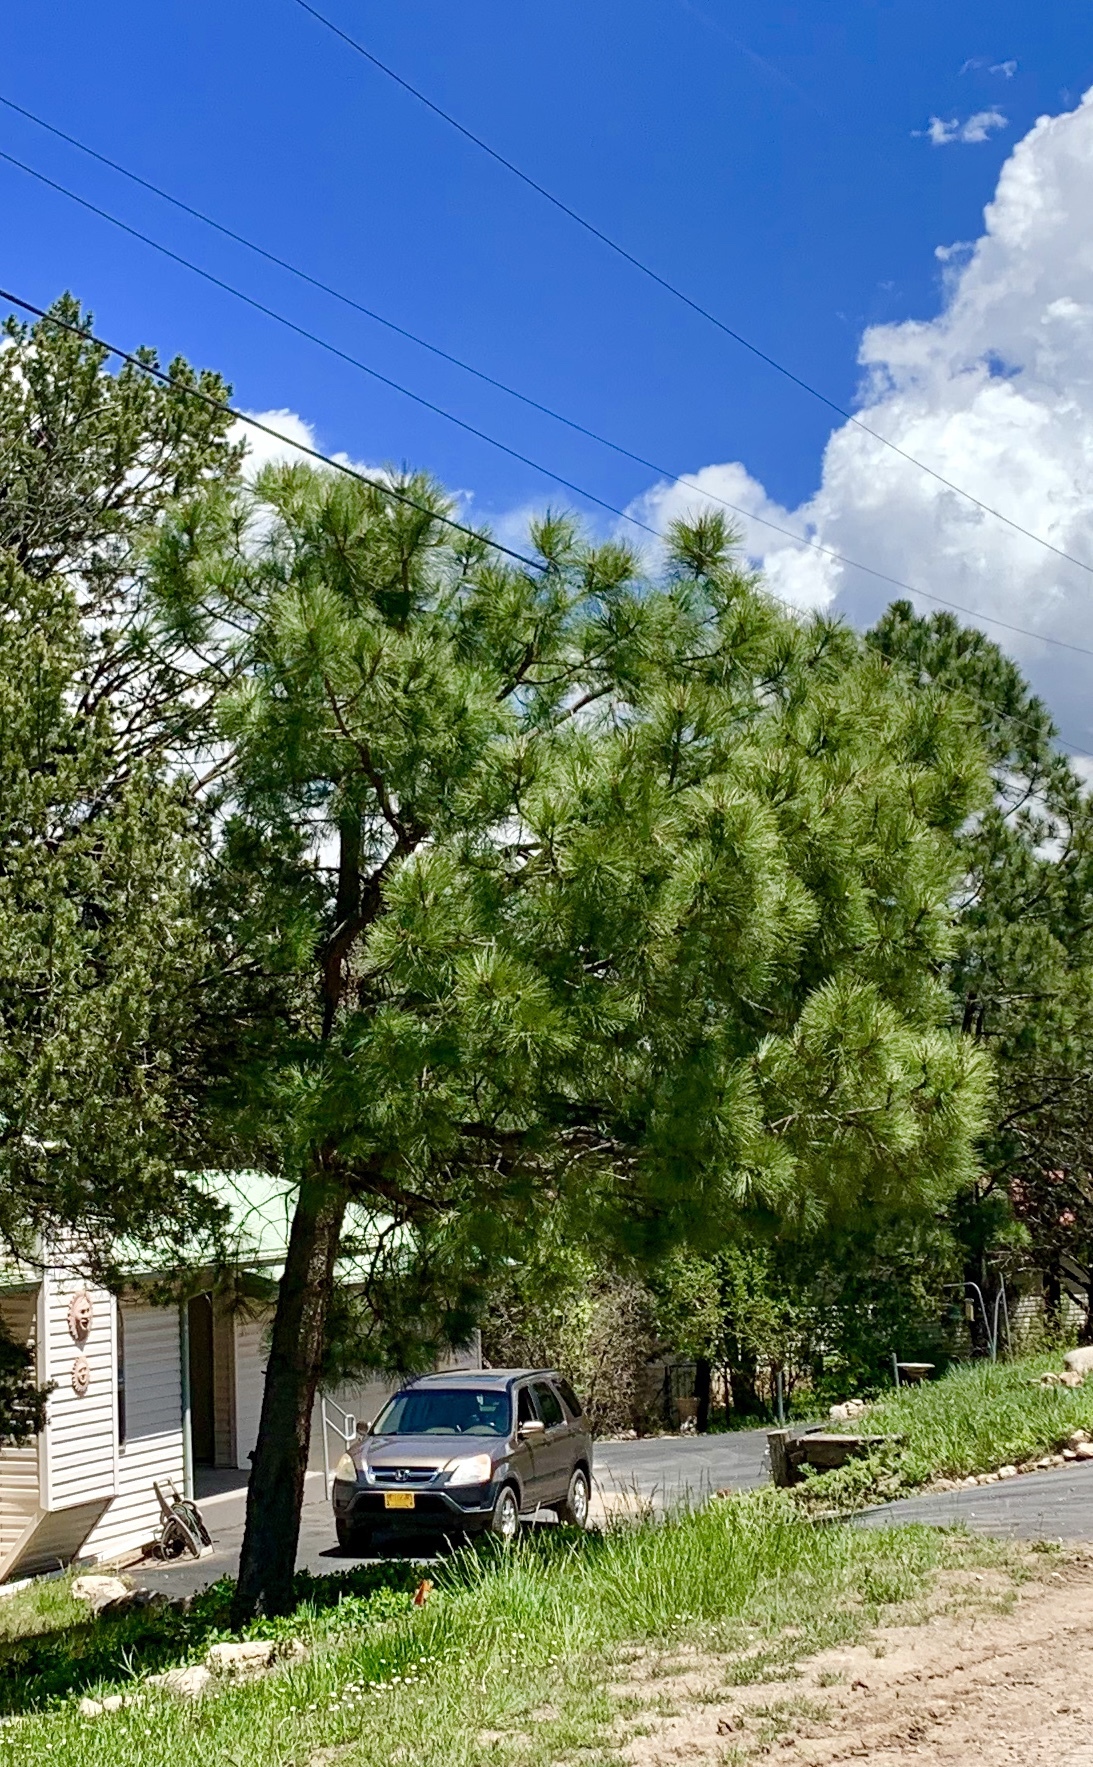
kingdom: Plantae
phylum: Tracheophyta
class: Pinopsida
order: Pinales
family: Pinaceae
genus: Pinus
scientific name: Pinus ponderosa
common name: Western yellow-pine
